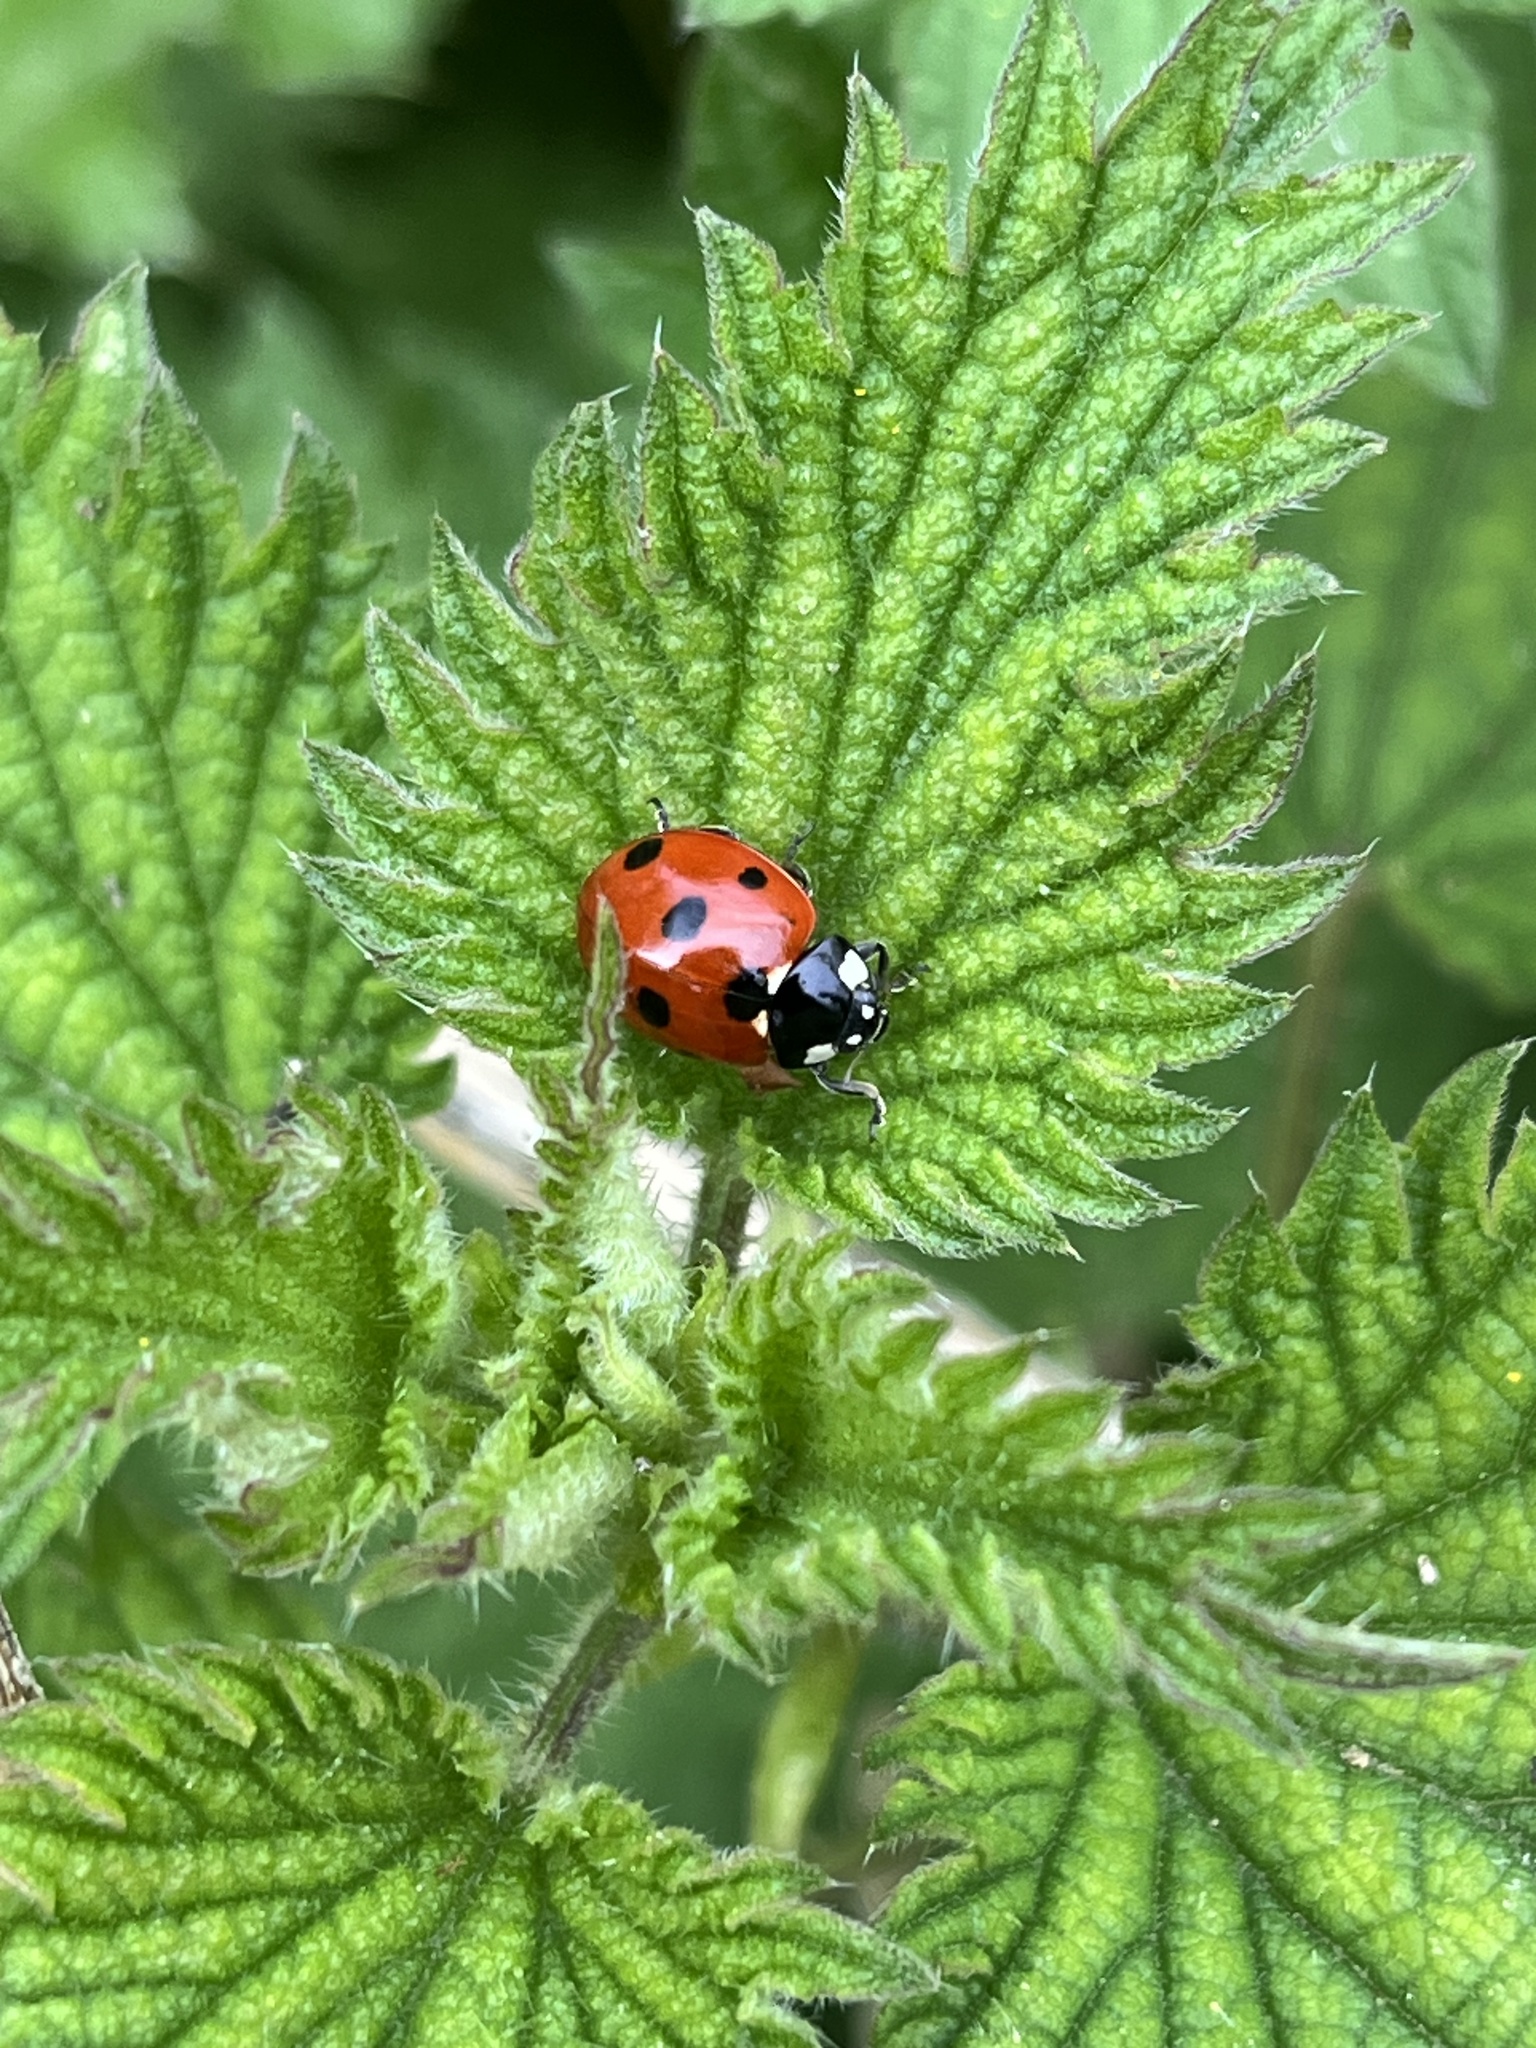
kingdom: Animalia
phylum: Arthropoda
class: Insecta
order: Coleoptera
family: Coccinellidae
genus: Coccinella
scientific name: Coccinella septempunctata
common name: Sevenspotted lady beetle
